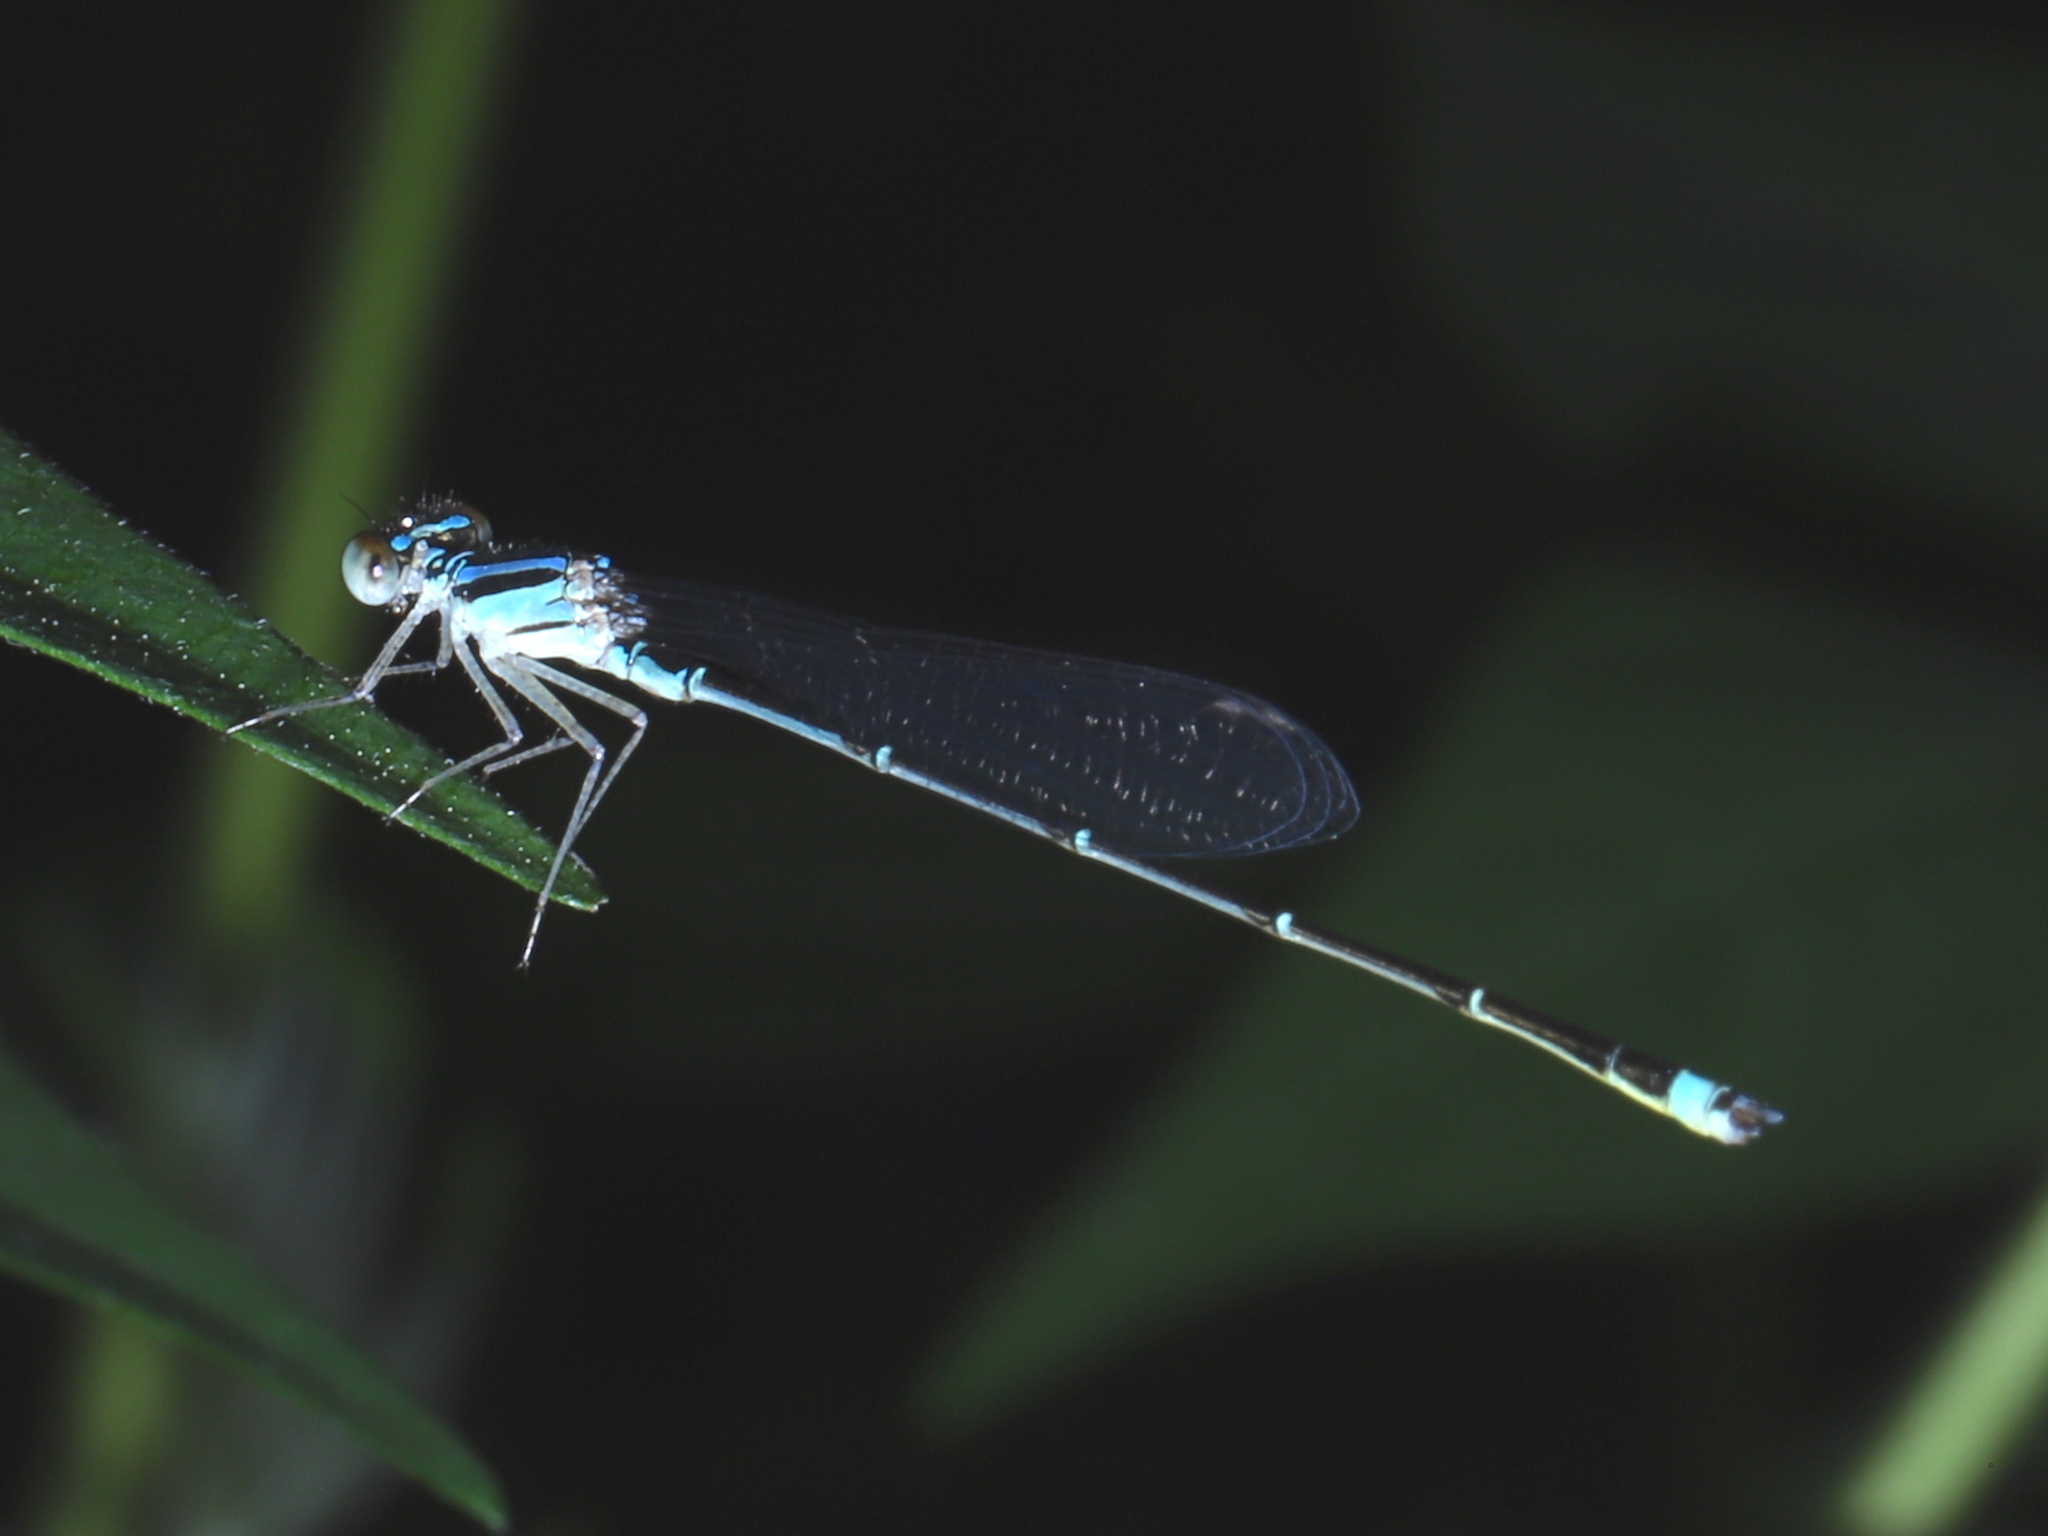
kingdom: Animalia
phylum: Arthropoda
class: Insecta
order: Odonata
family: Coenagrionidae
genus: Enallagma
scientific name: Enallagma signatum
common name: Orange bluet
